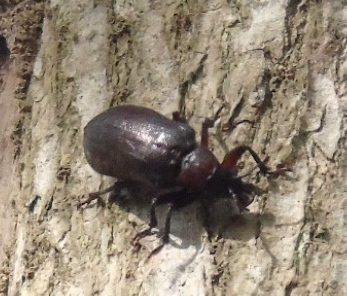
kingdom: Animalia
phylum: Arthropoda
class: Insecta
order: Coleoptera
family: Rhipiceridae
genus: Sandalus
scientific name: Sandalus
